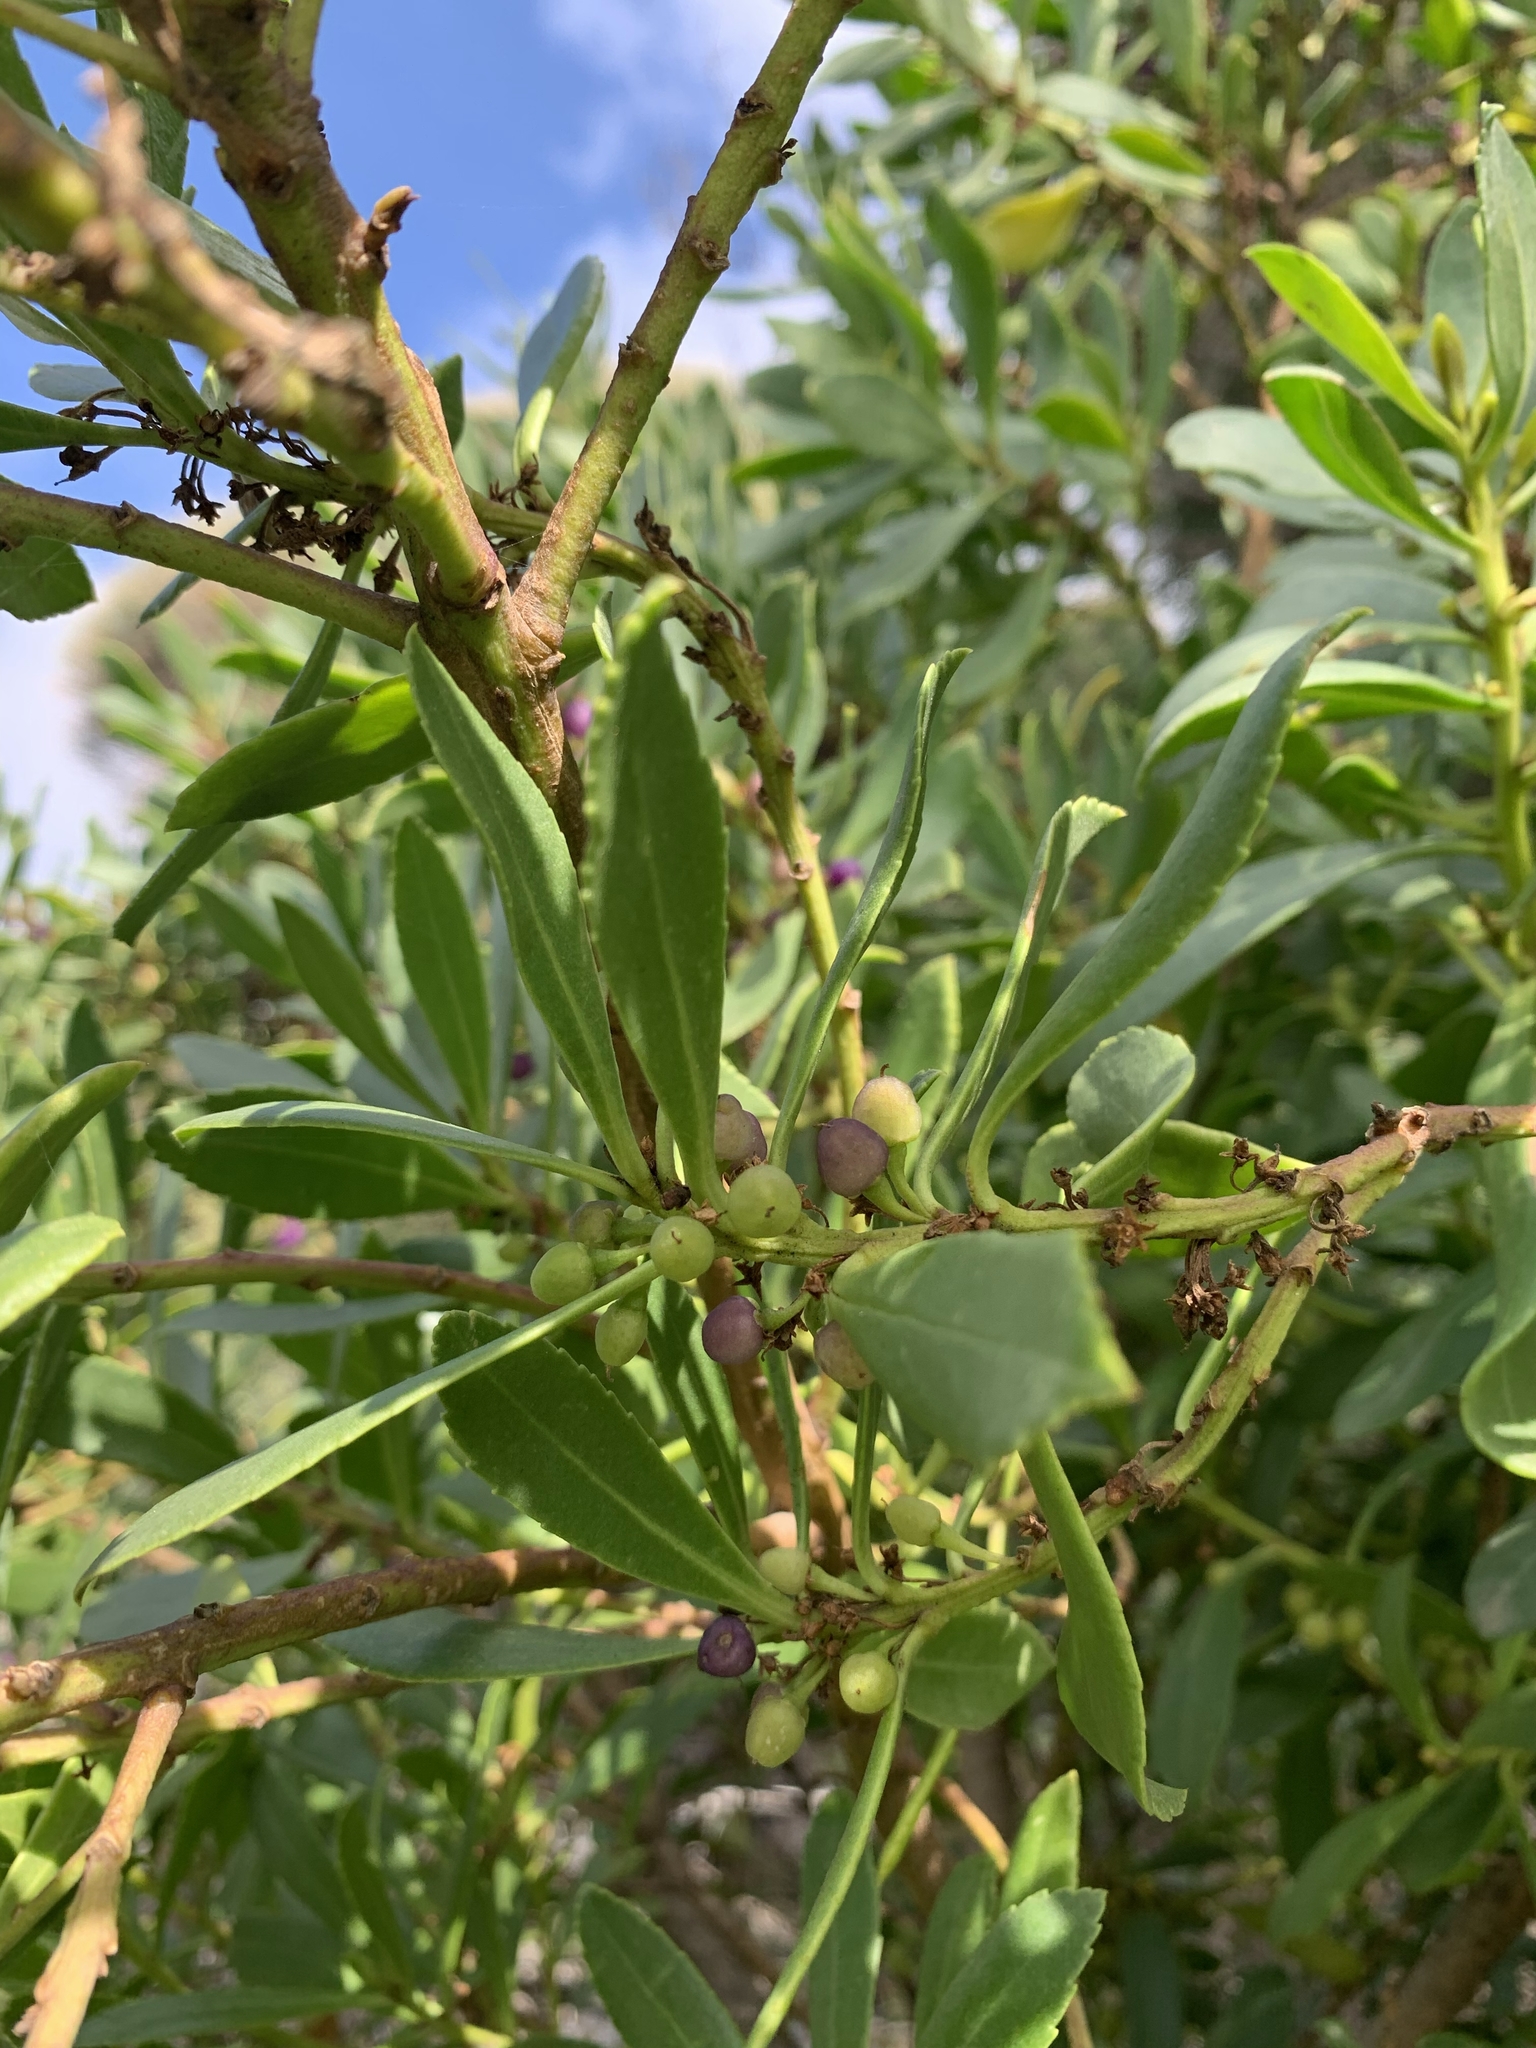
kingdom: Plantae
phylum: Tracheophyta
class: Magnoliopsida
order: Lamiales
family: Scrophulariaceae
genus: Myoporum
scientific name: Myoporum insulare
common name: Common boobialla
